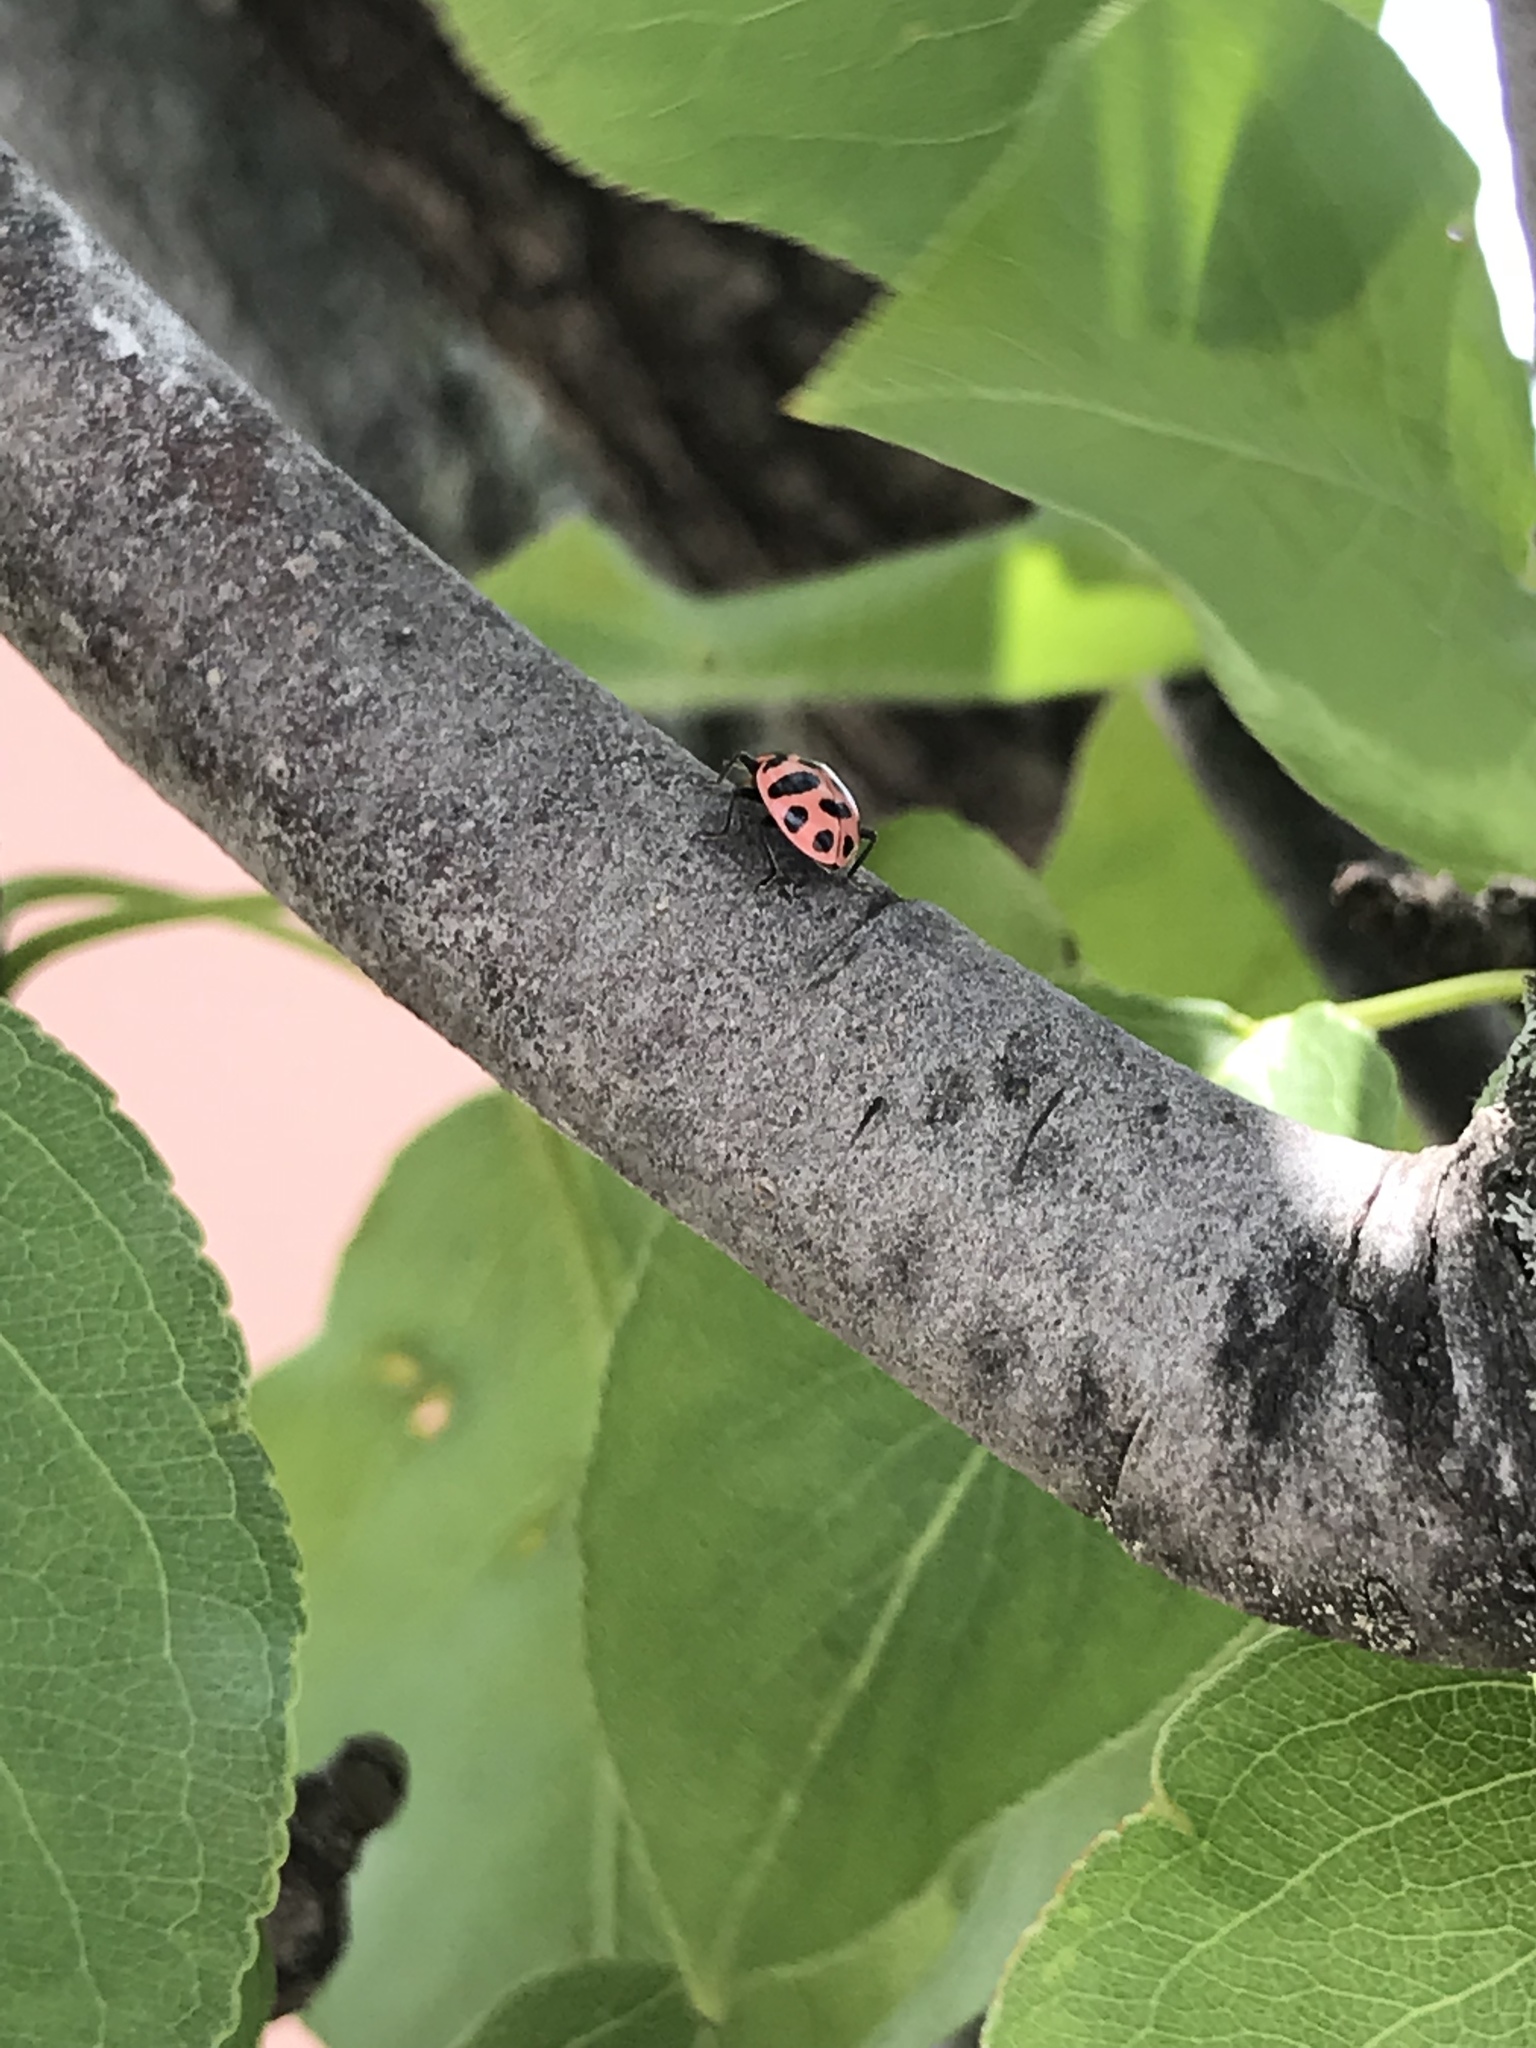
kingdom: Animalia
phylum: Arthropoda
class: Insecta
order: Coleoptera
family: Coccinellidae
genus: Coleomegilla
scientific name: Coleomegilla maculata
